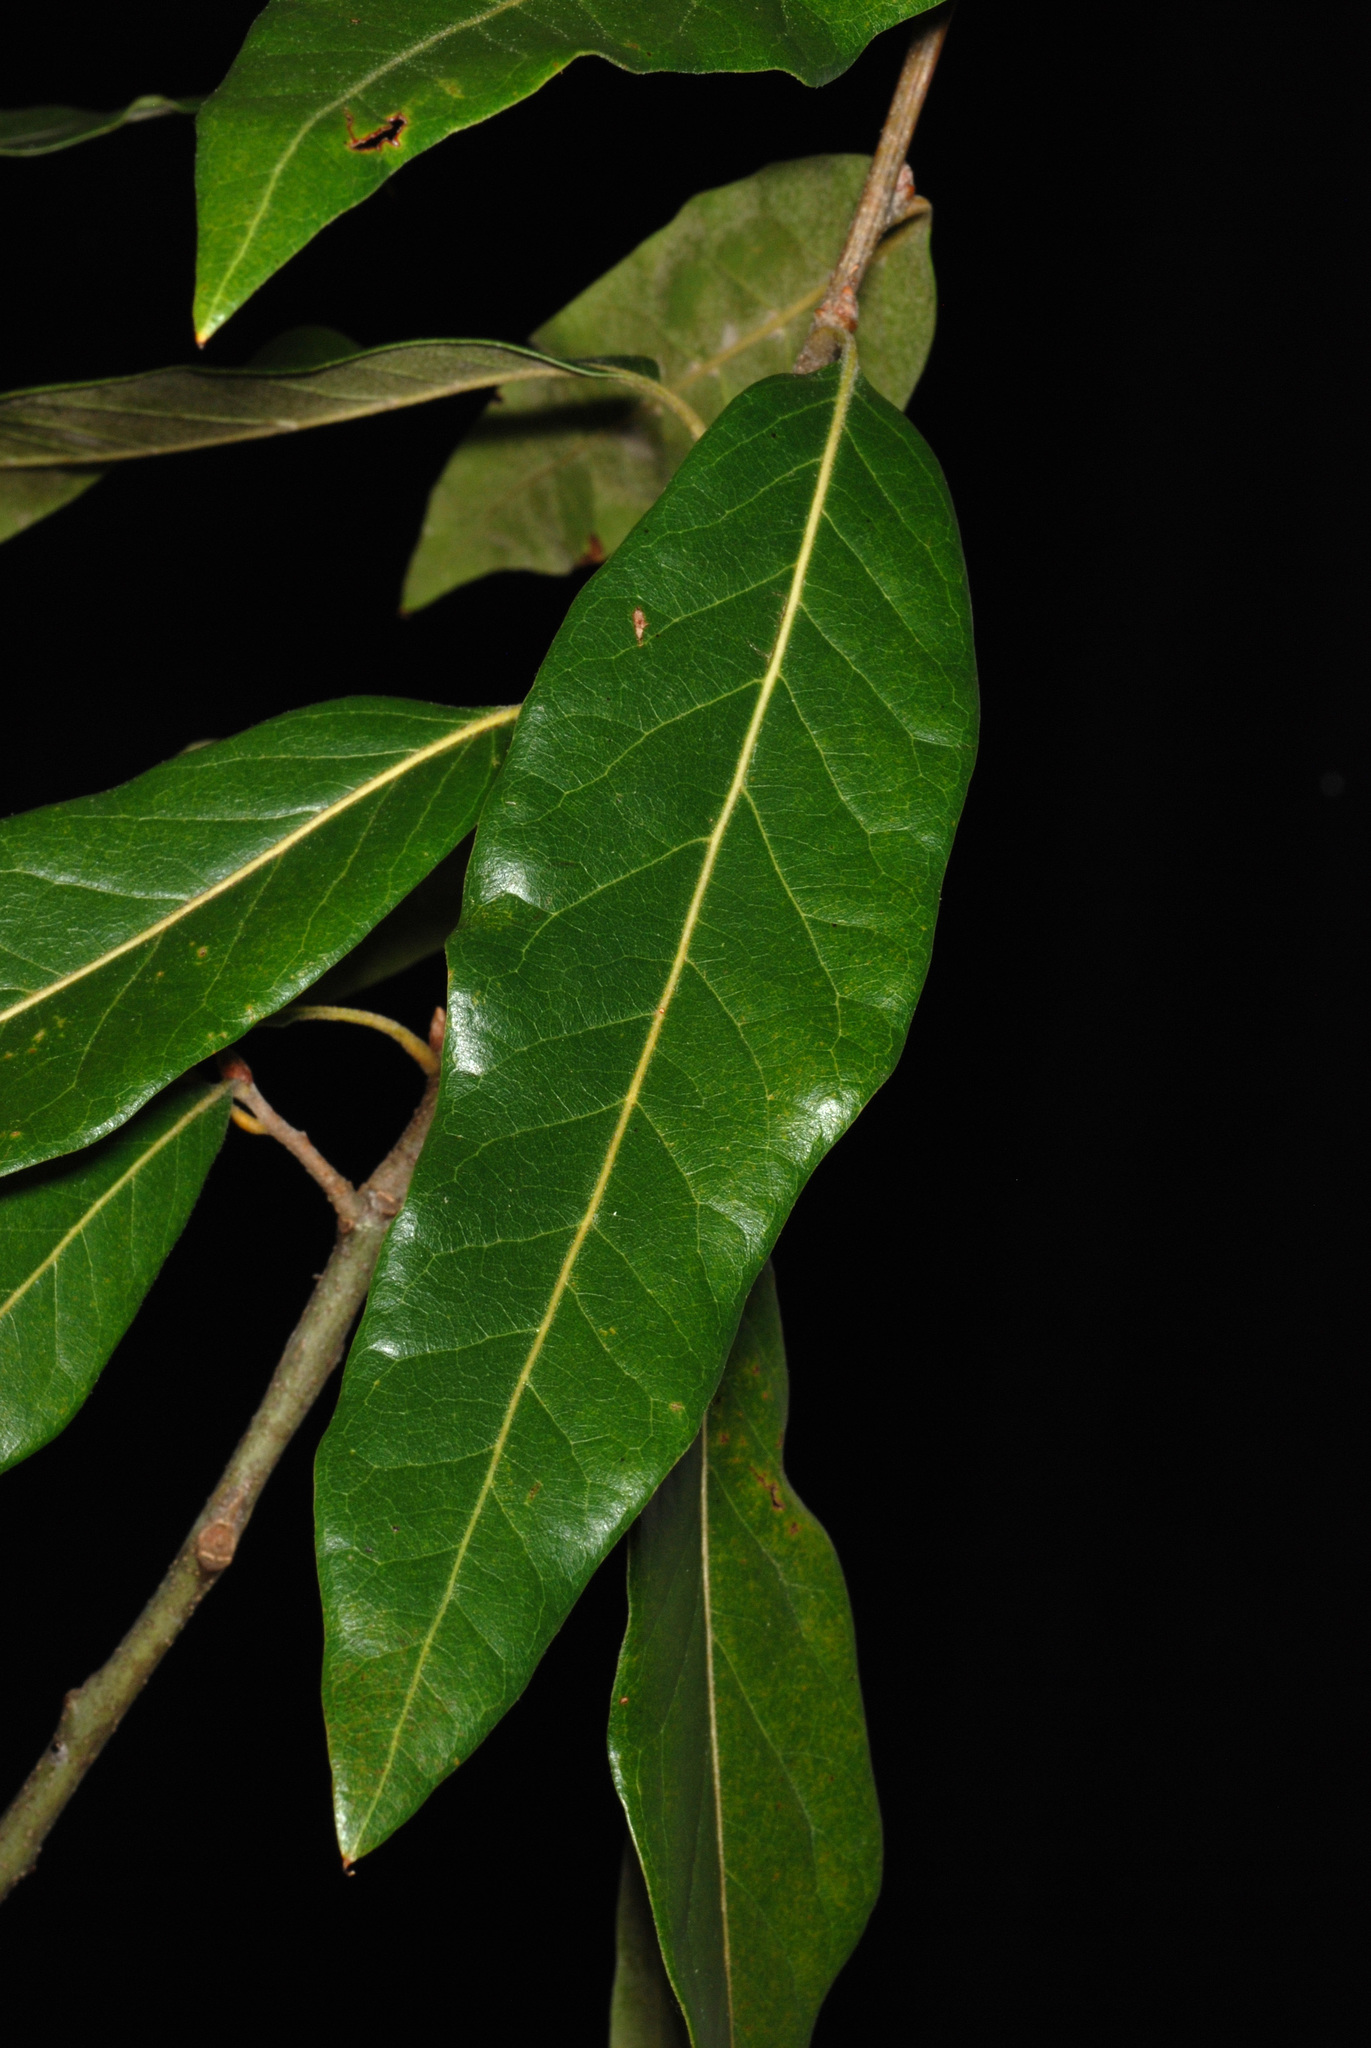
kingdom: Plantae
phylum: Tracheophyta
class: Magnoliopsida
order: Fagales
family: Fagaceae
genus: Quercus
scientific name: Quercus rudkinii
